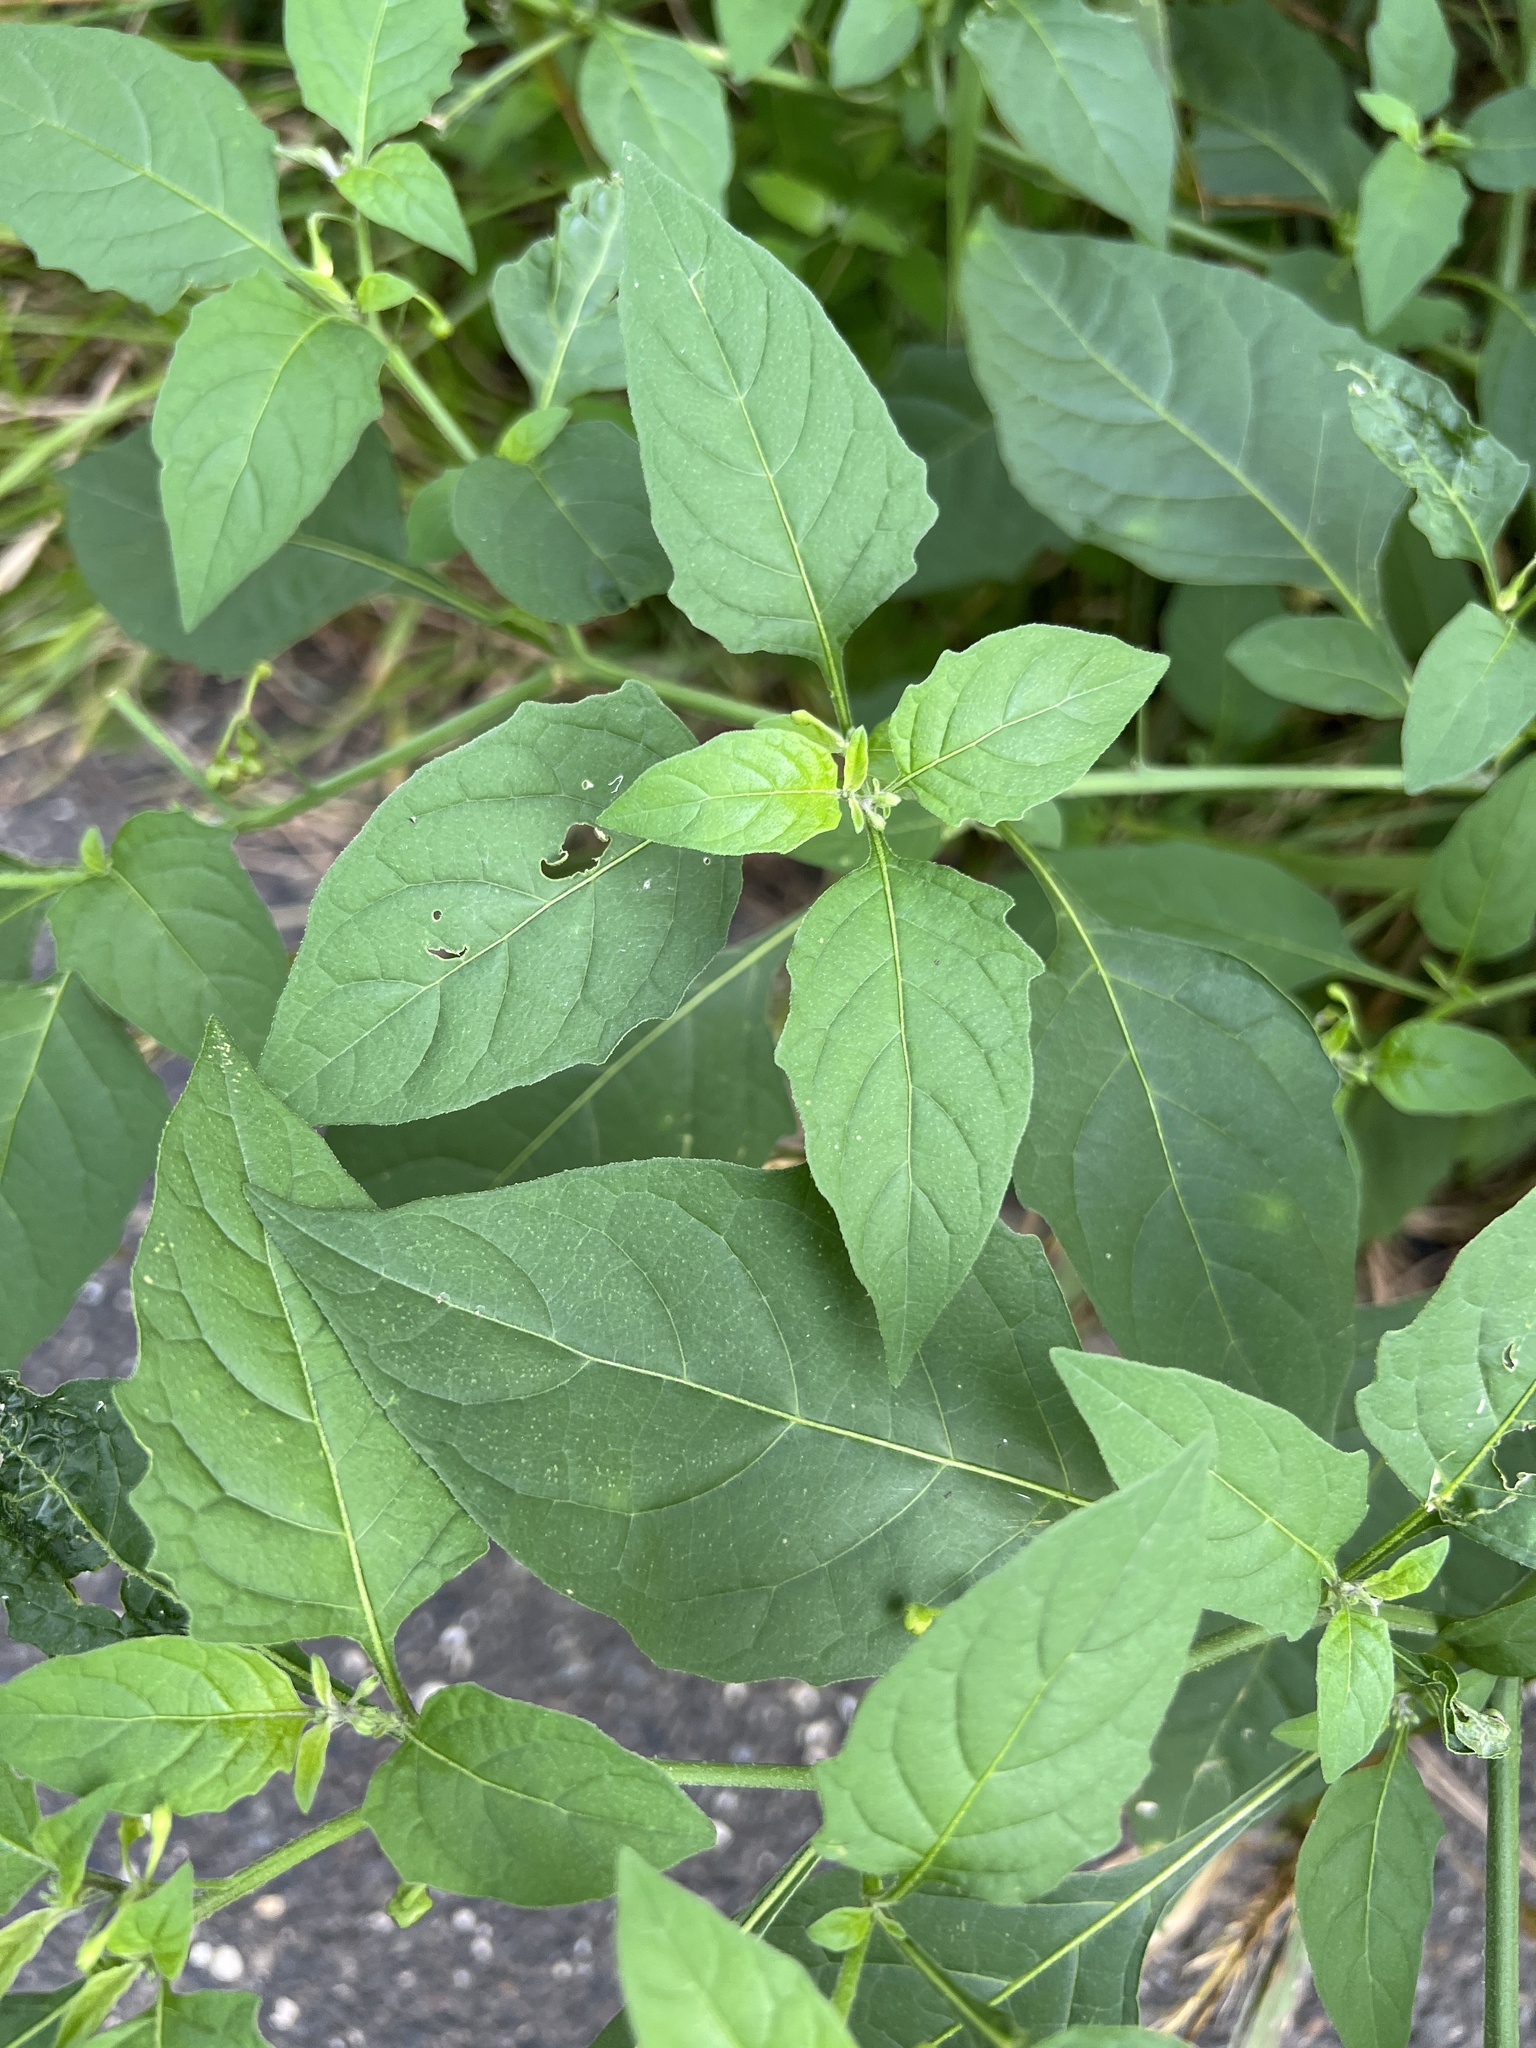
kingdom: Plantae
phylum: Tracheophyta
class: Magnoliopsida
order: Solanales
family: Solanaceae
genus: Solanum
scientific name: Solanum emulans
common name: Eastern black nightshade
